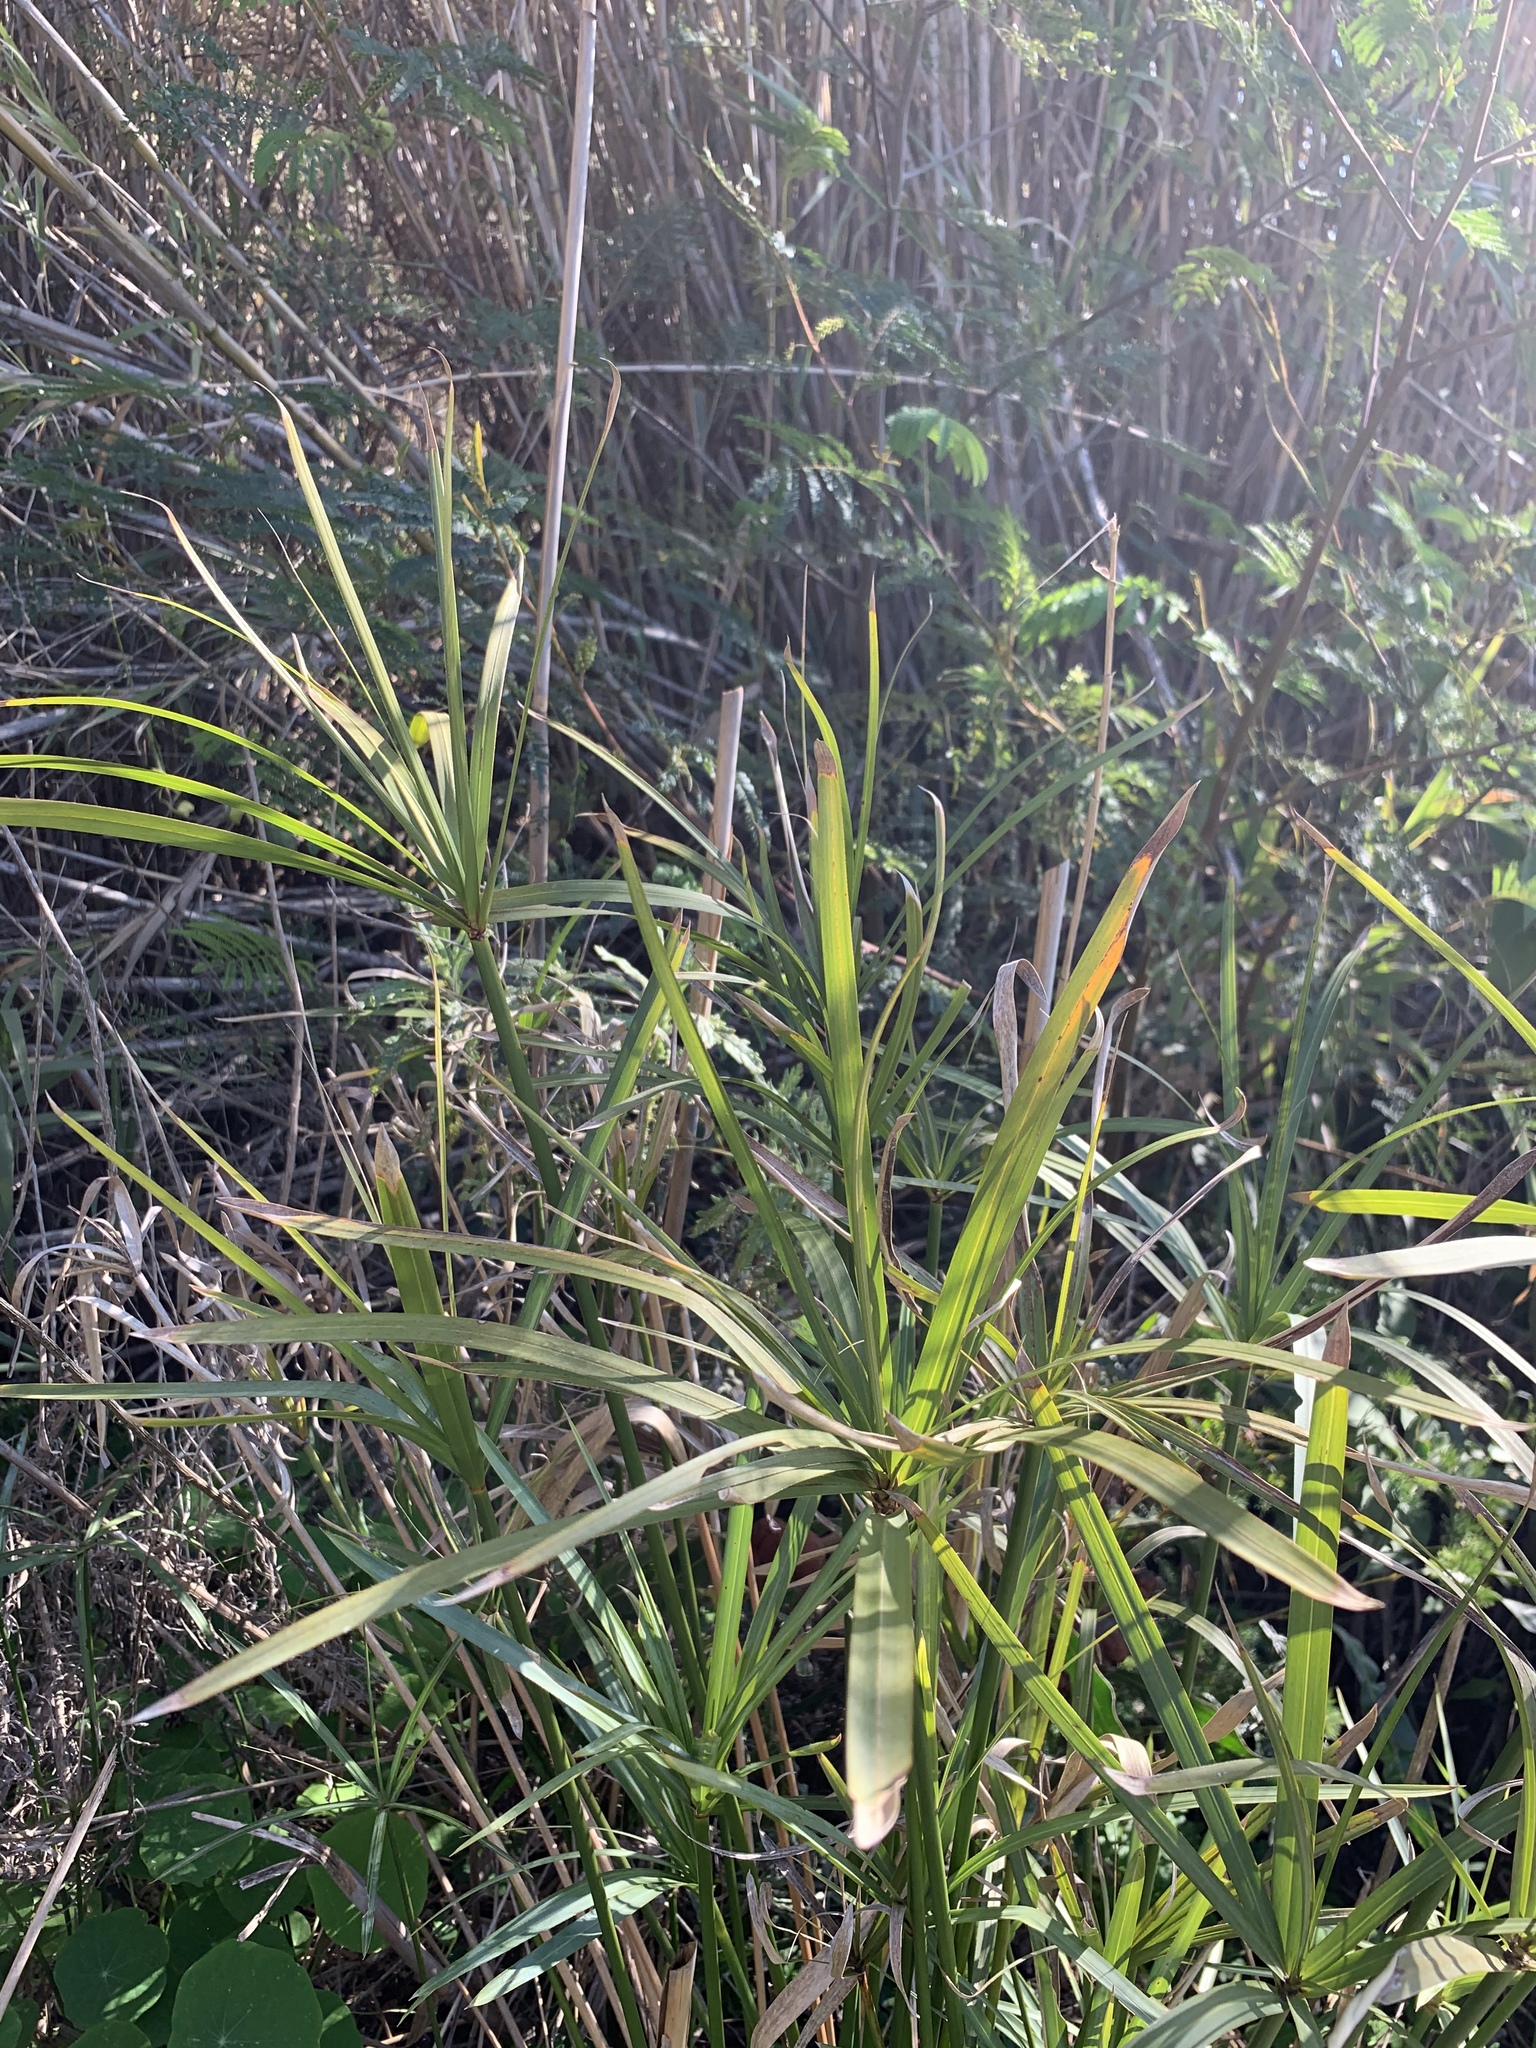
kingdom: Plantae
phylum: Tracheophyta
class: Liliopsida
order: Poales
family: Cyperaceae
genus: Cyperus
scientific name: Cyperus textilis
